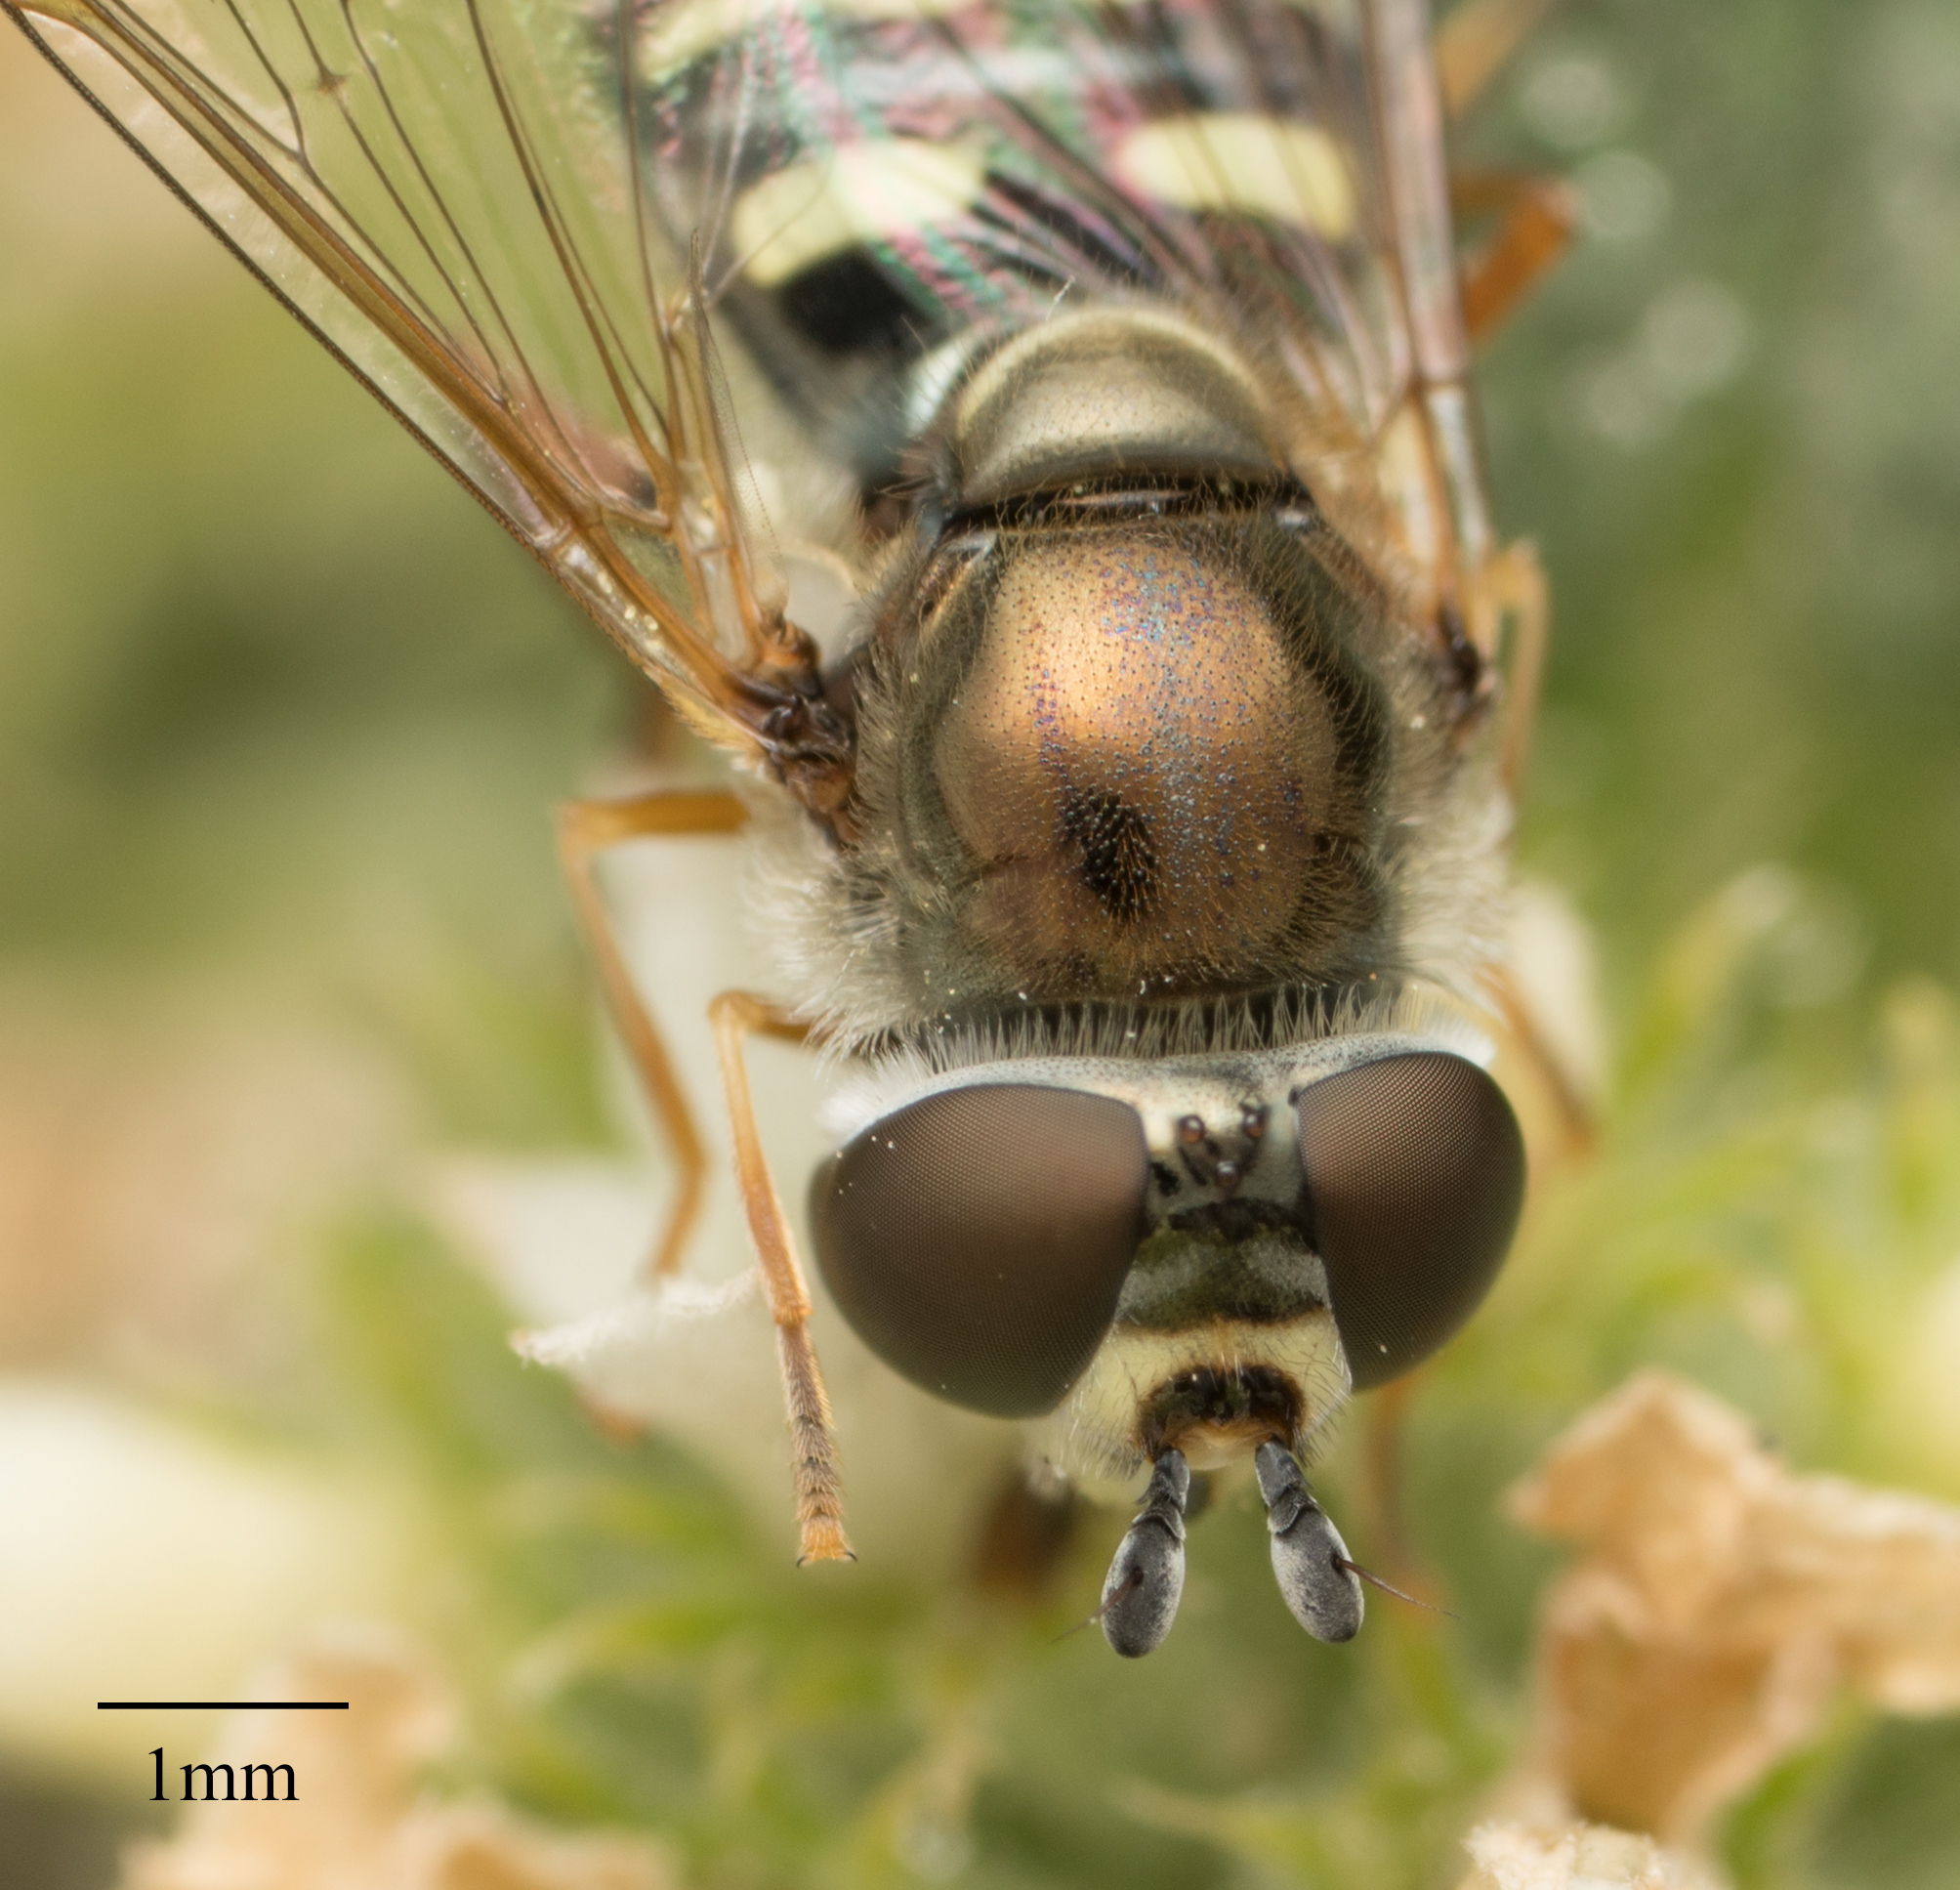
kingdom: Animalia
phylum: Arthropoda
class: Insecta
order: Diptera
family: Syrphidae
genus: Eupeodes
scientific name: Eupeodes volucris
